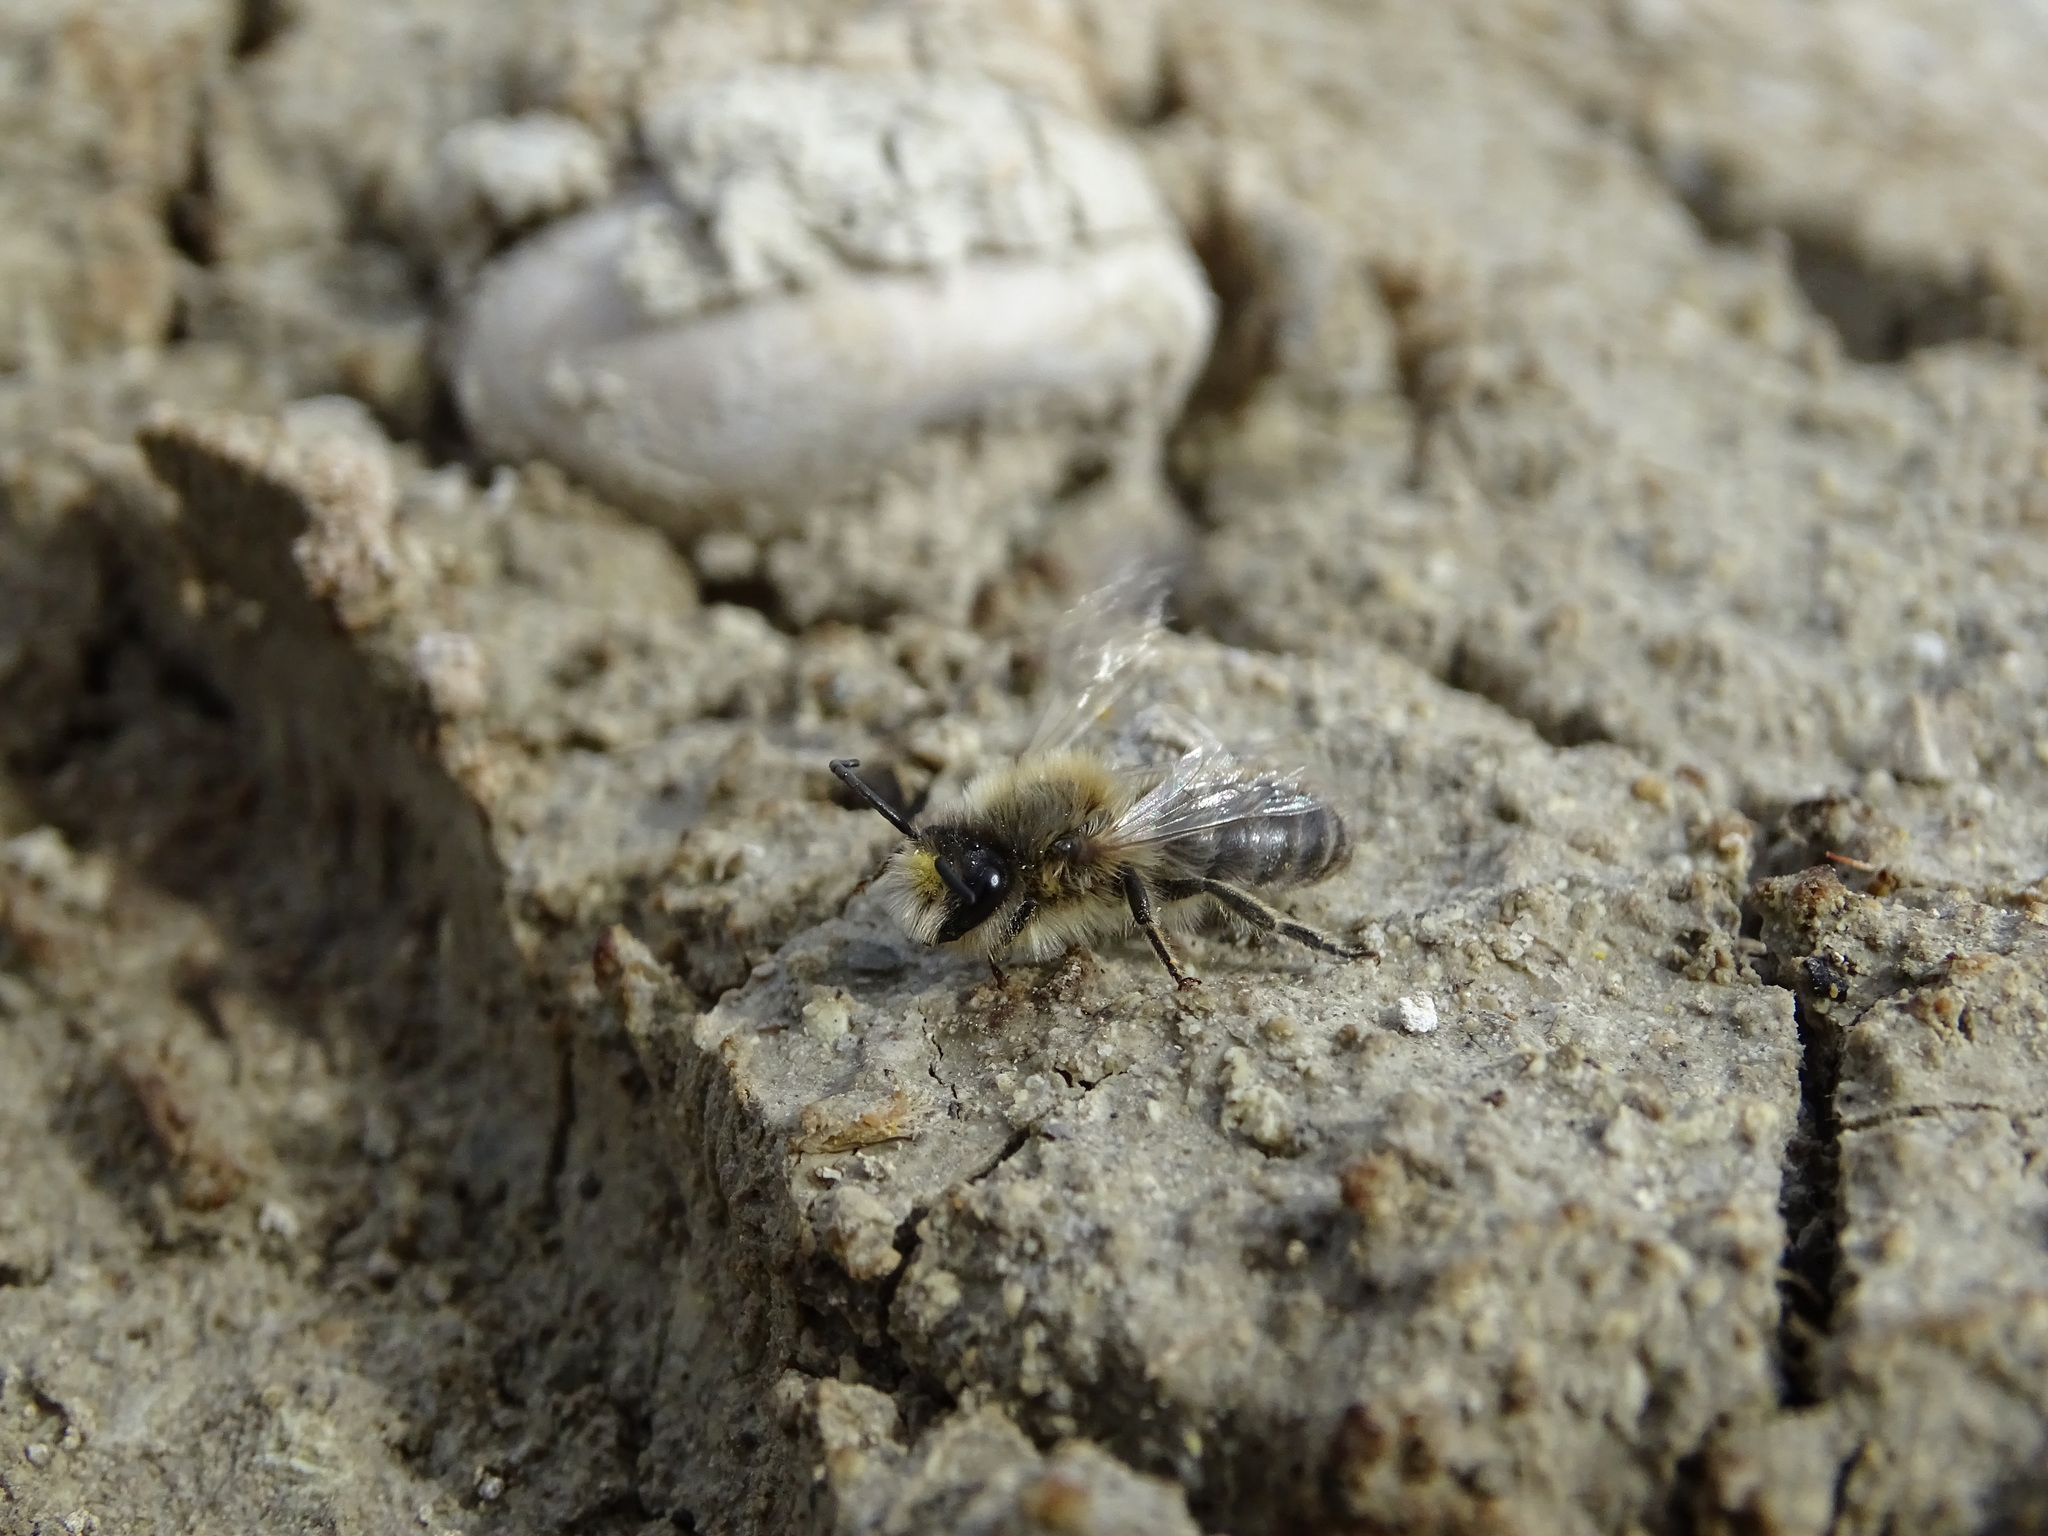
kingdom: Animalia
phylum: Arthropoda
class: Insecta
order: Hymenoptera
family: Colletidae
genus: Colletes
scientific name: Colletes cunicularius
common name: Early colletes
